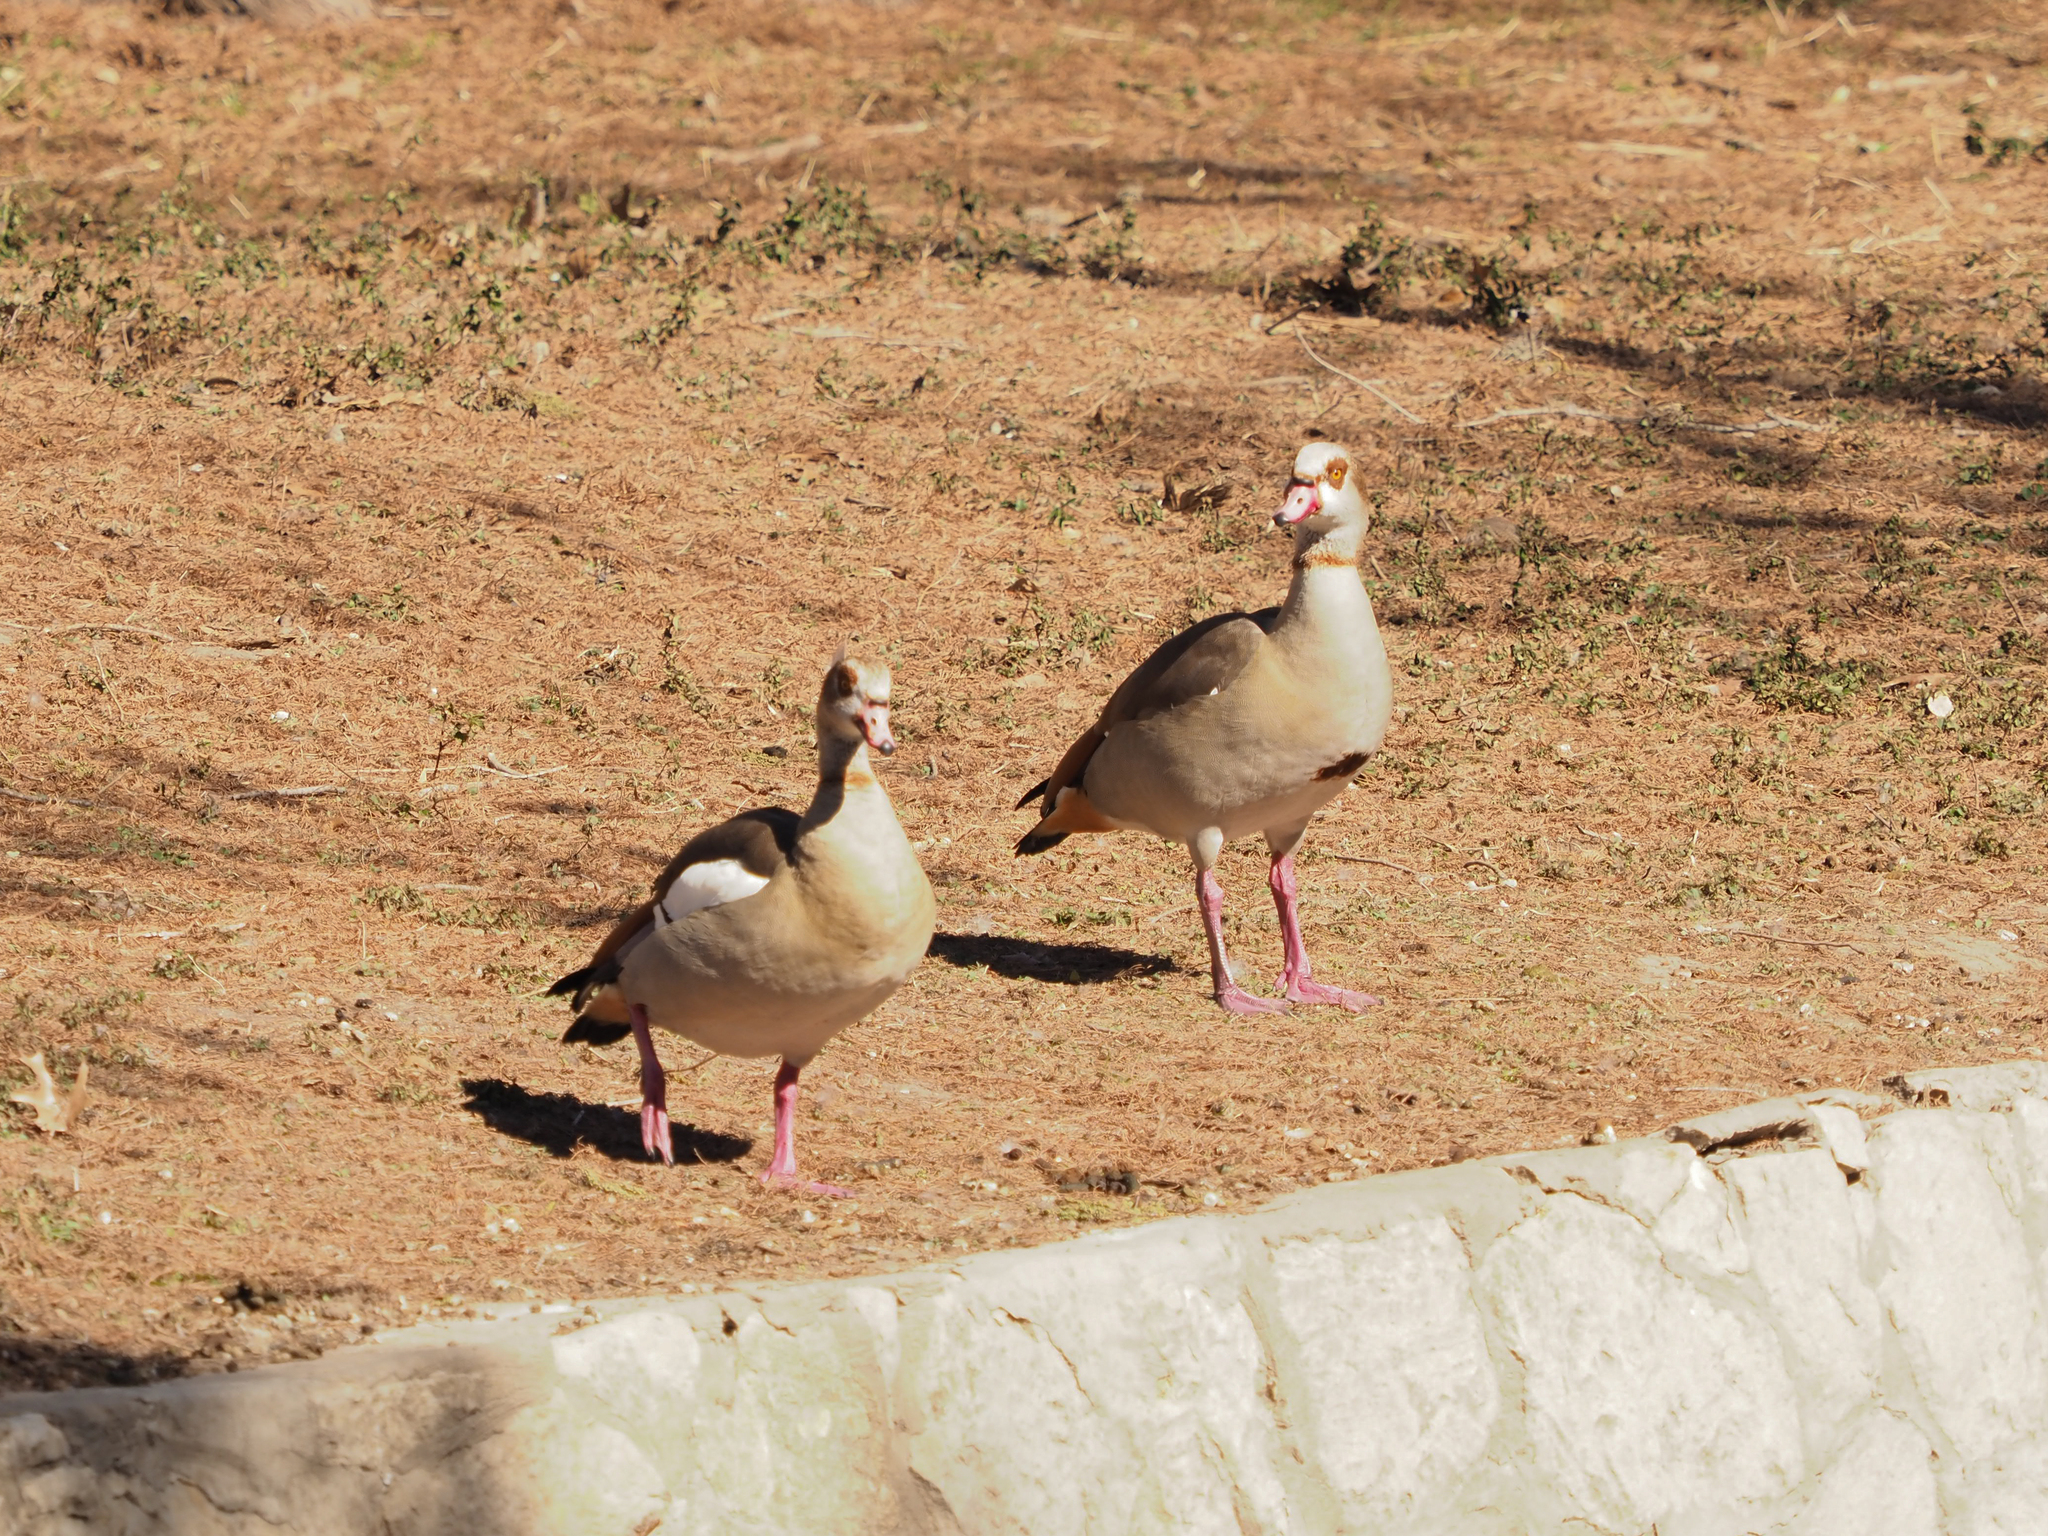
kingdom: Animalia
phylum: Chordata
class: Aves
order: Anseriformes
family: Anatidae
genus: Alopochen
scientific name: Alopochen aegyptiaca
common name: Egyptian goose
